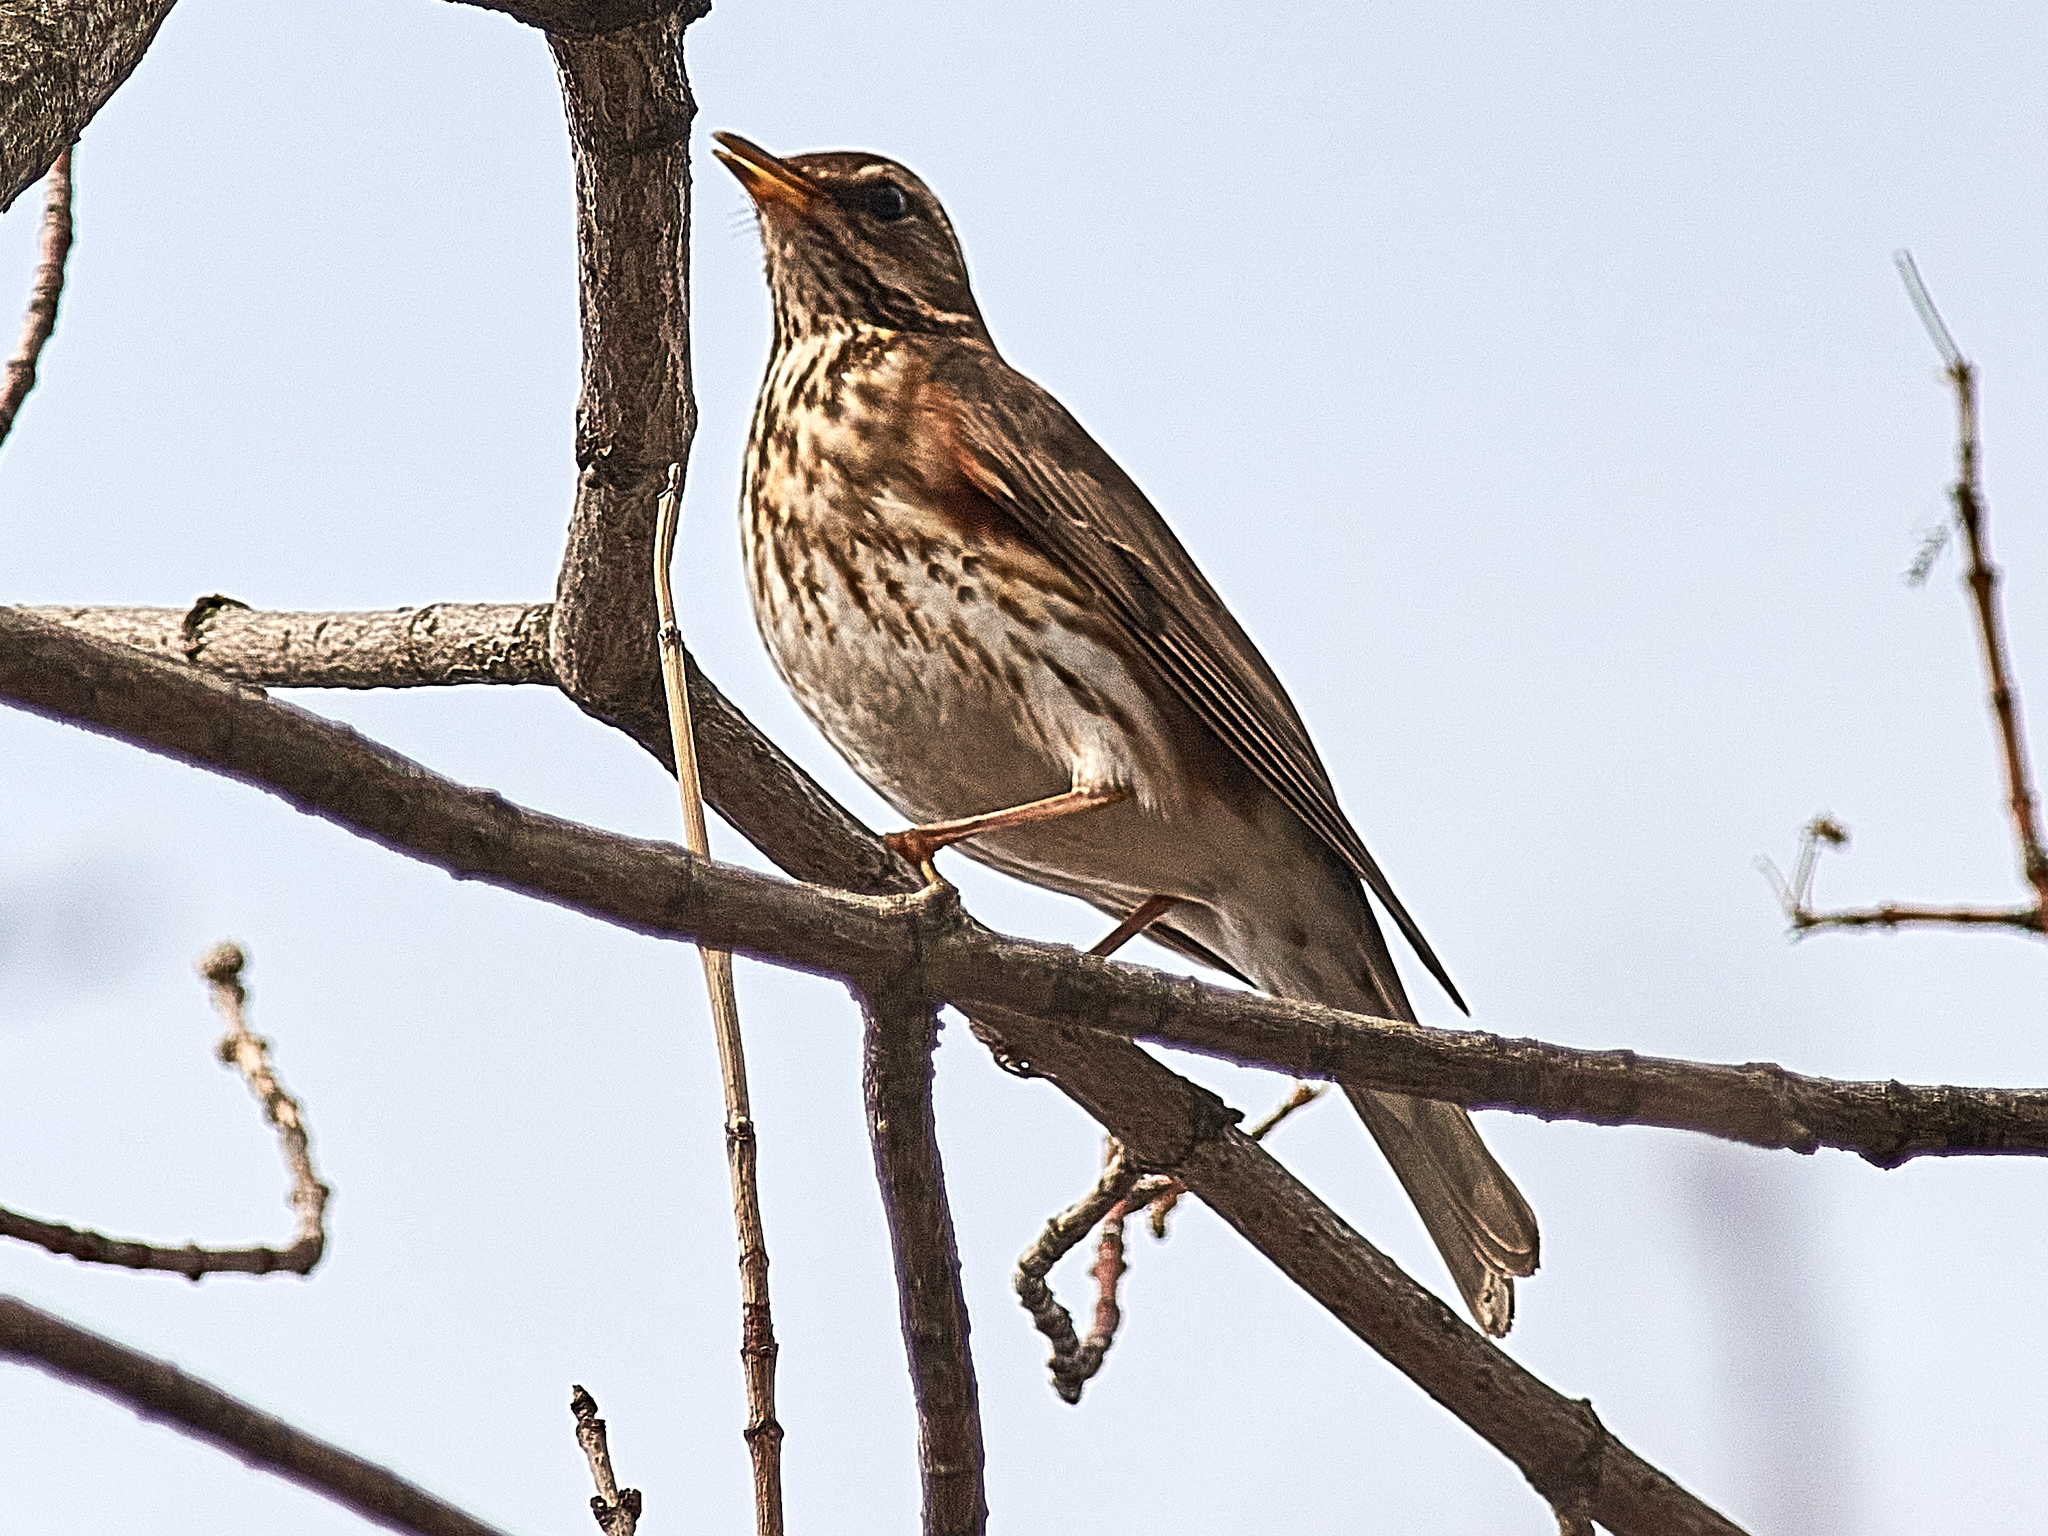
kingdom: Animalia
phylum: Chordata
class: Aves
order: Passeriformes
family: Turdidae
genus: Turdus
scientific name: Turdus iliacus
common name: Redwing
